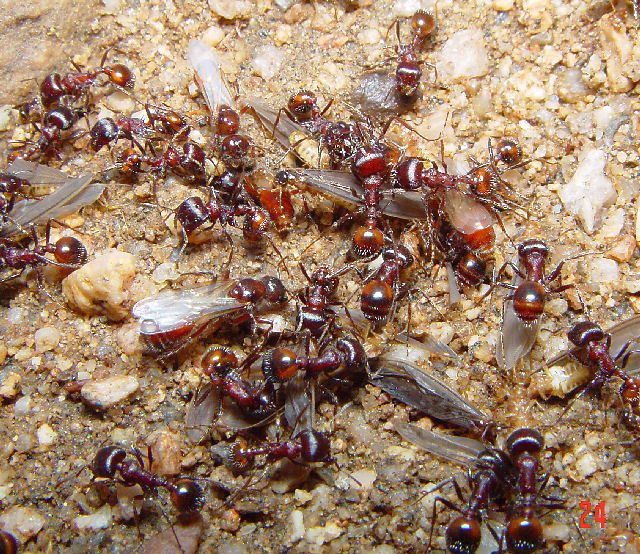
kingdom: Animalia
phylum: Arthropoda
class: Insecta
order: Hymenoptera
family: Formicidae
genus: Pogonomyrmex
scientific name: Pogonomyrmex rugosus
